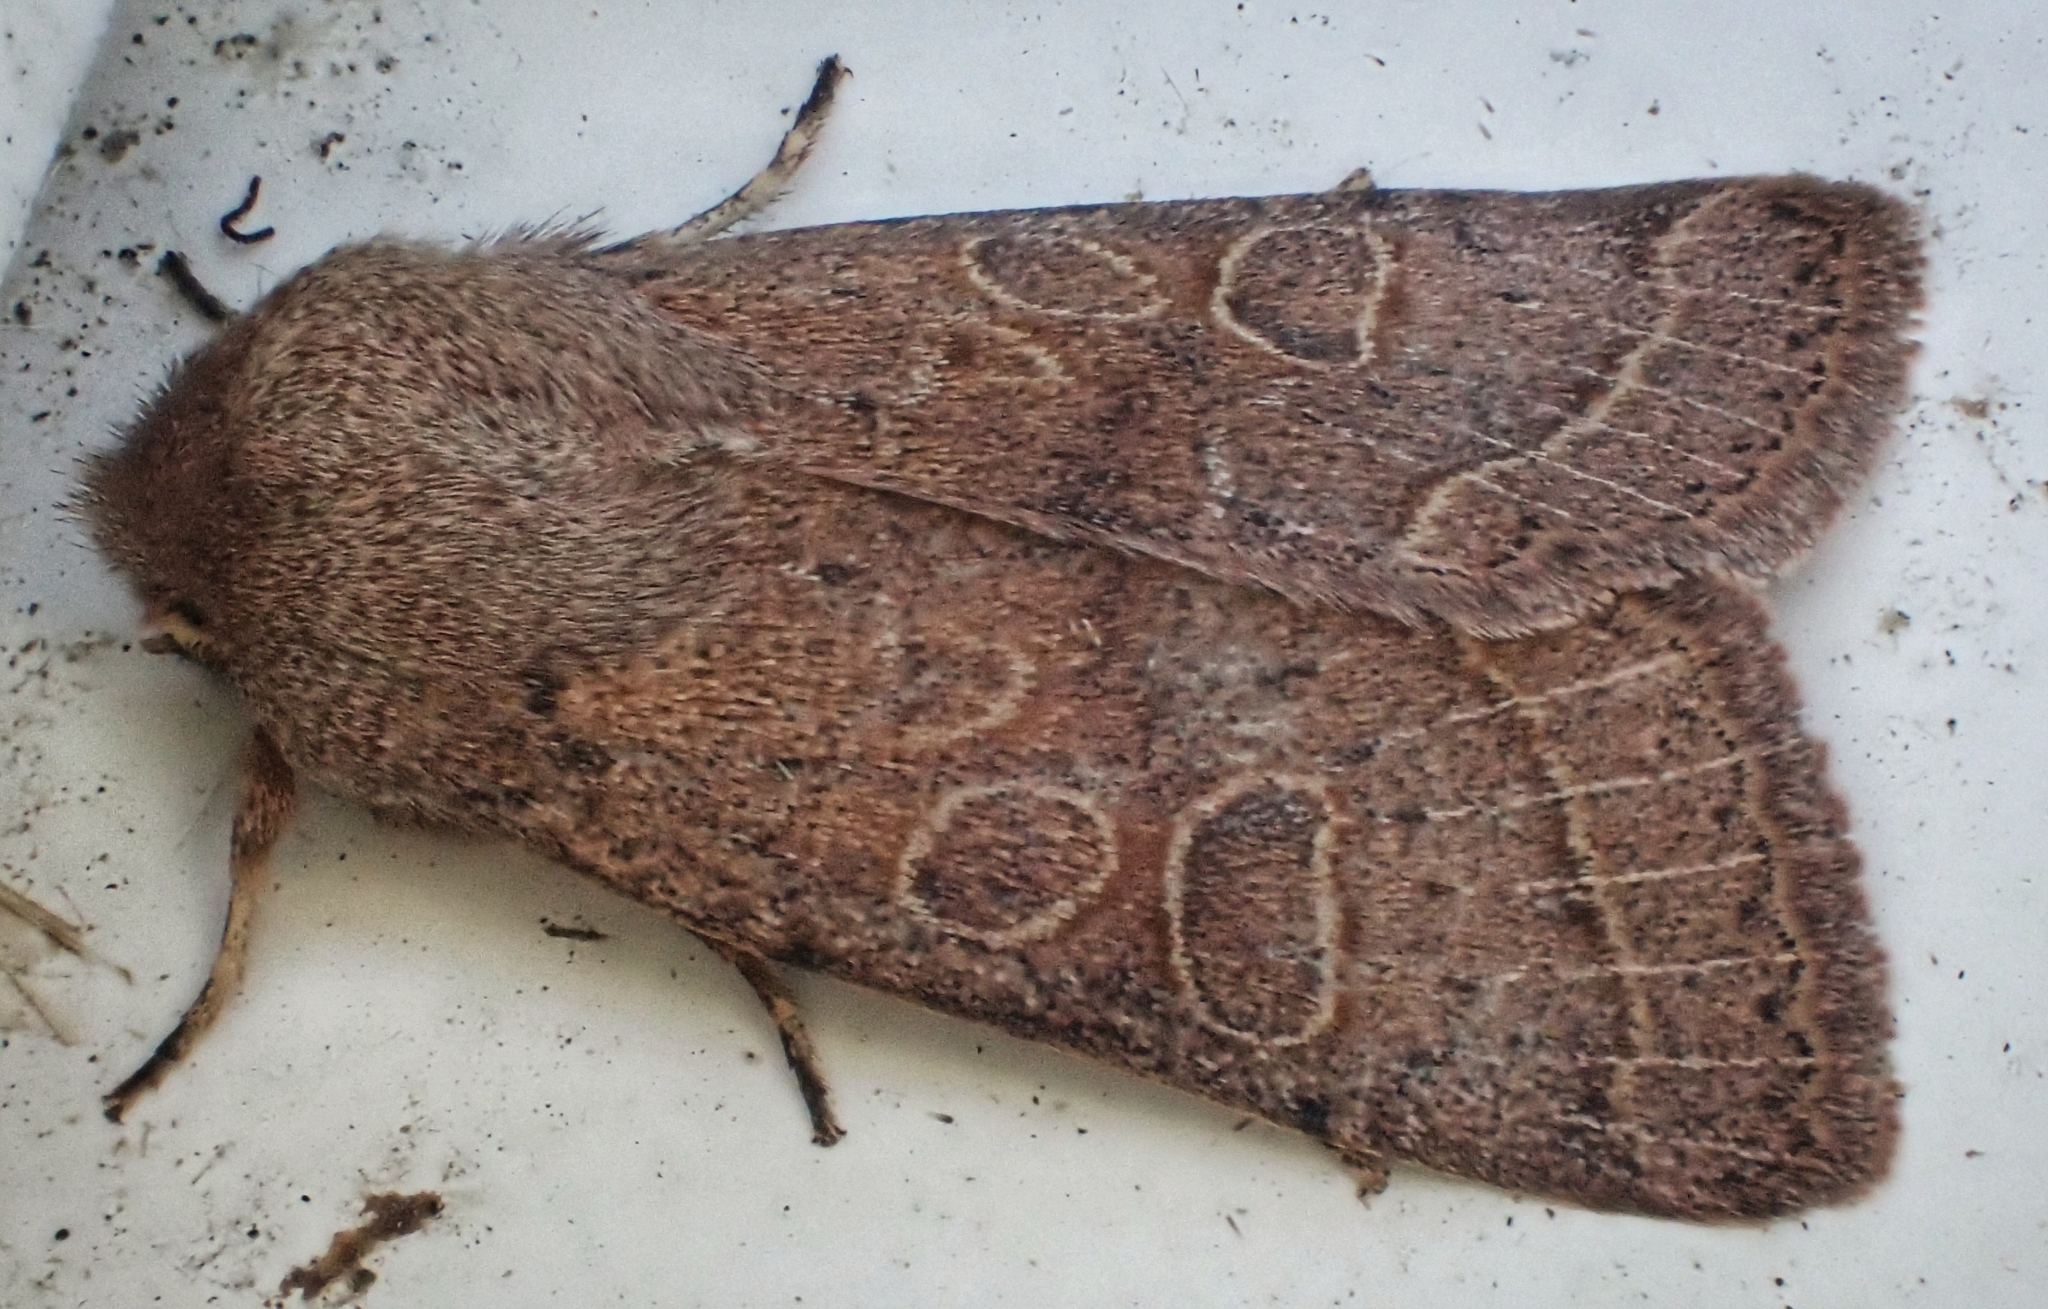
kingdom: Animalia
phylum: Arthropoda
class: Insecta
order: Lepidoptera
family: Noctuidae
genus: Orthosia
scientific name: Orthosia cerasi
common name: Common quaker
